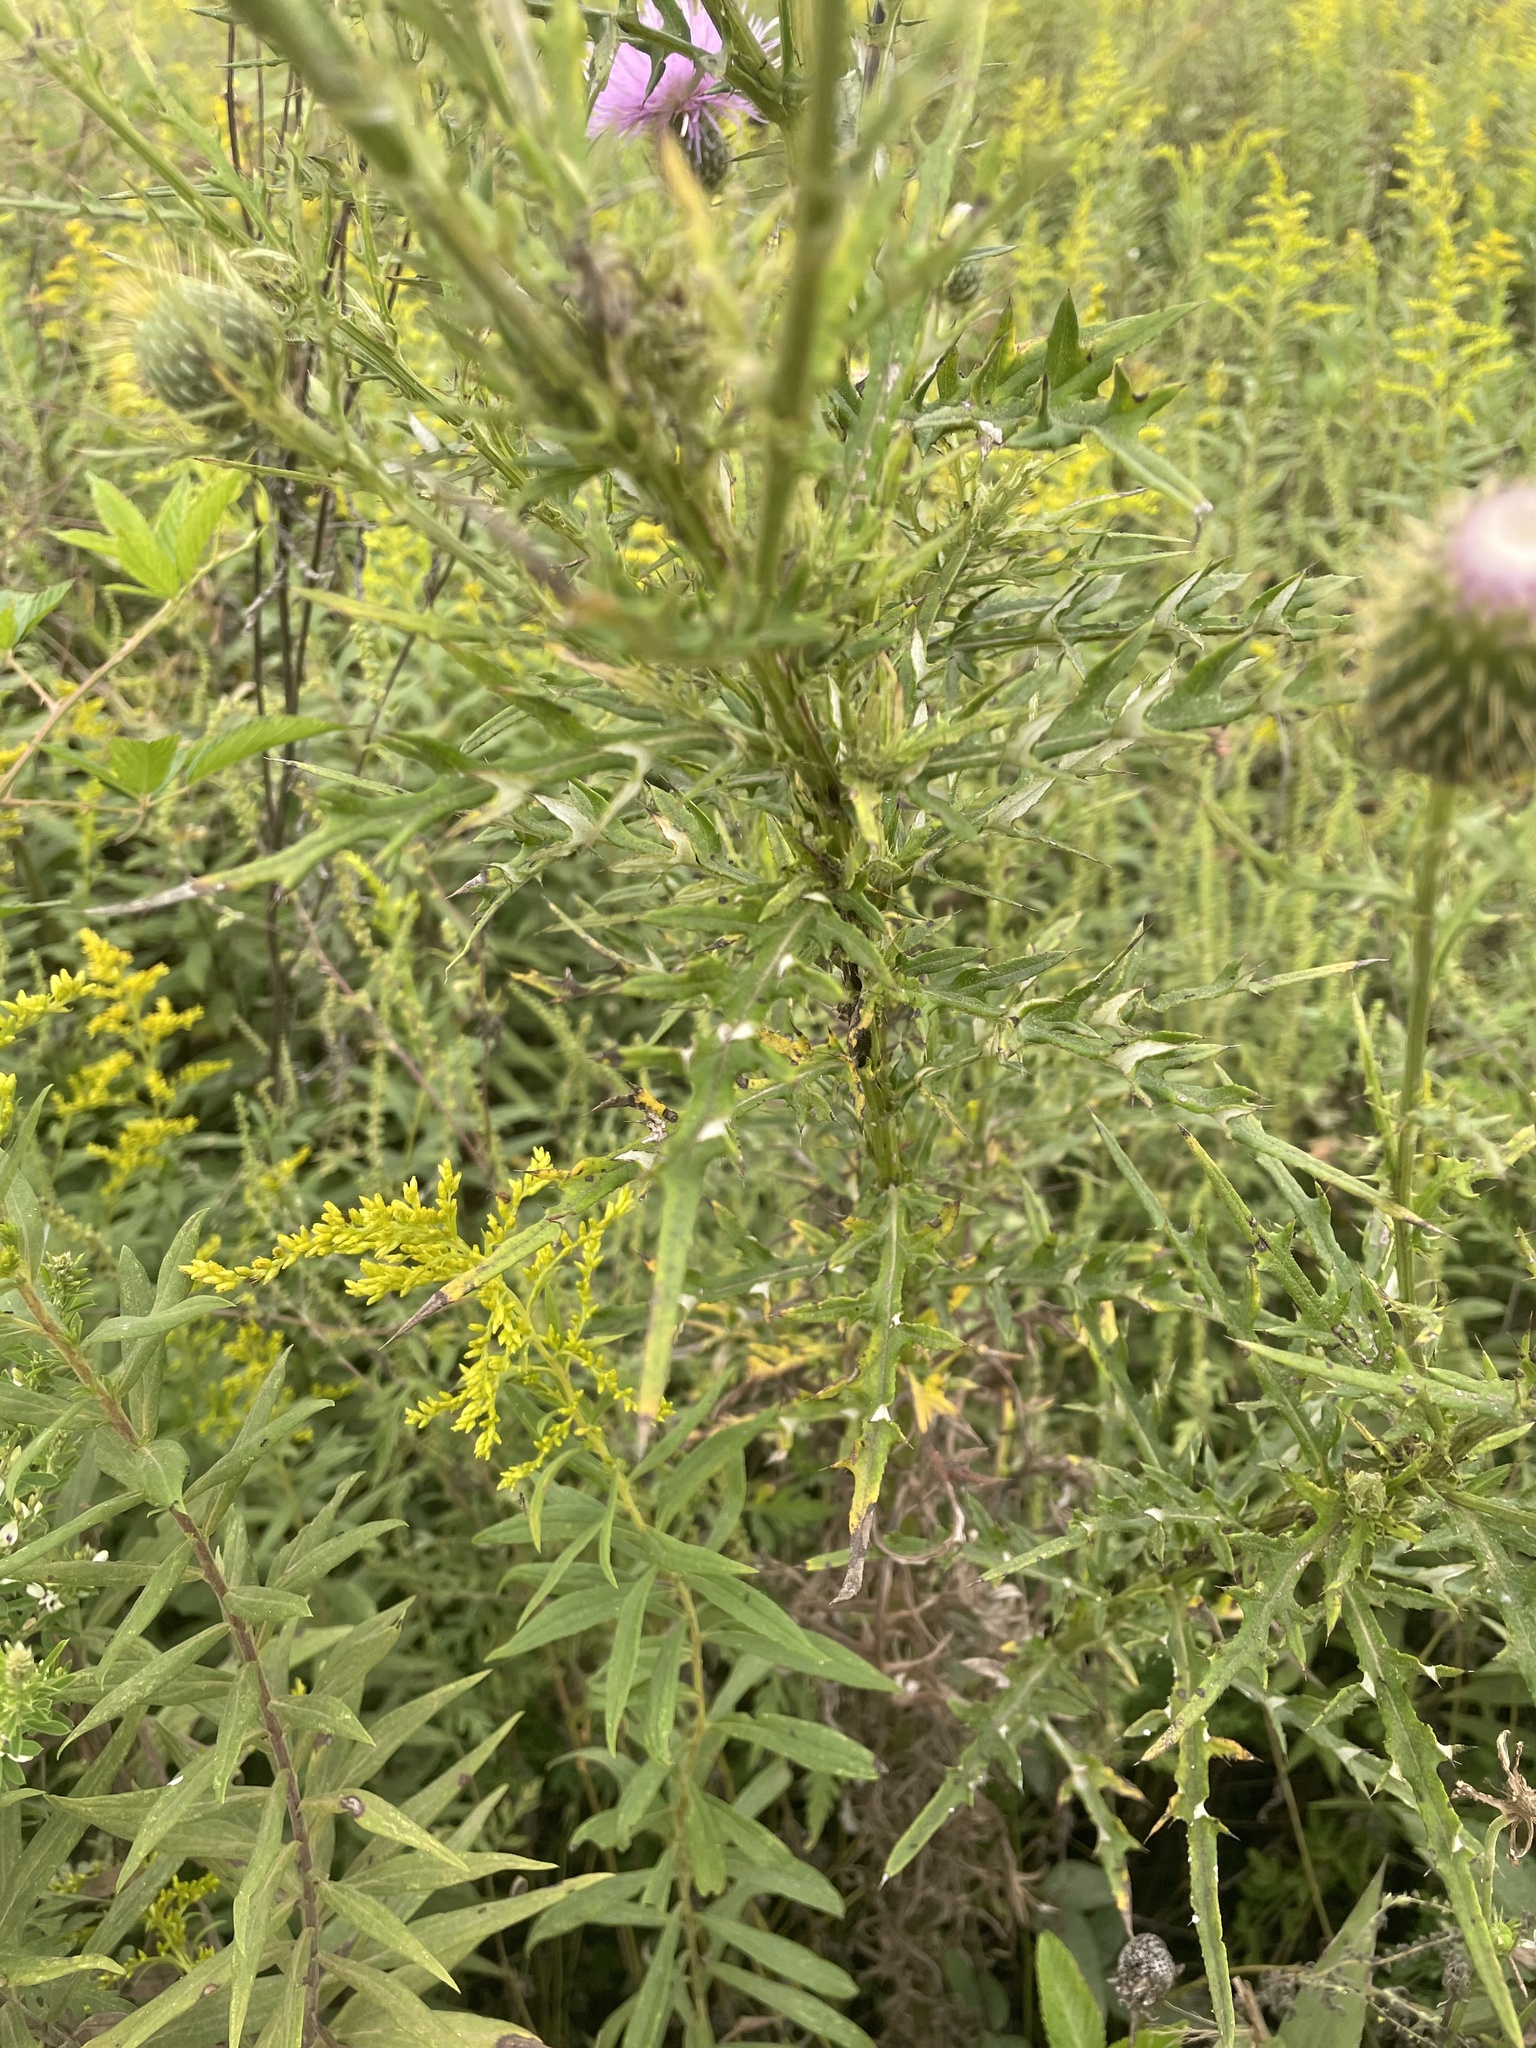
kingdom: Plantae
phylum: Tracheophyta
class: Magnoliopsida
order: Asterales
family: Asteraceae
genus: Cirsium
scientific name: Cirsium discolor
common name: Field thistle
